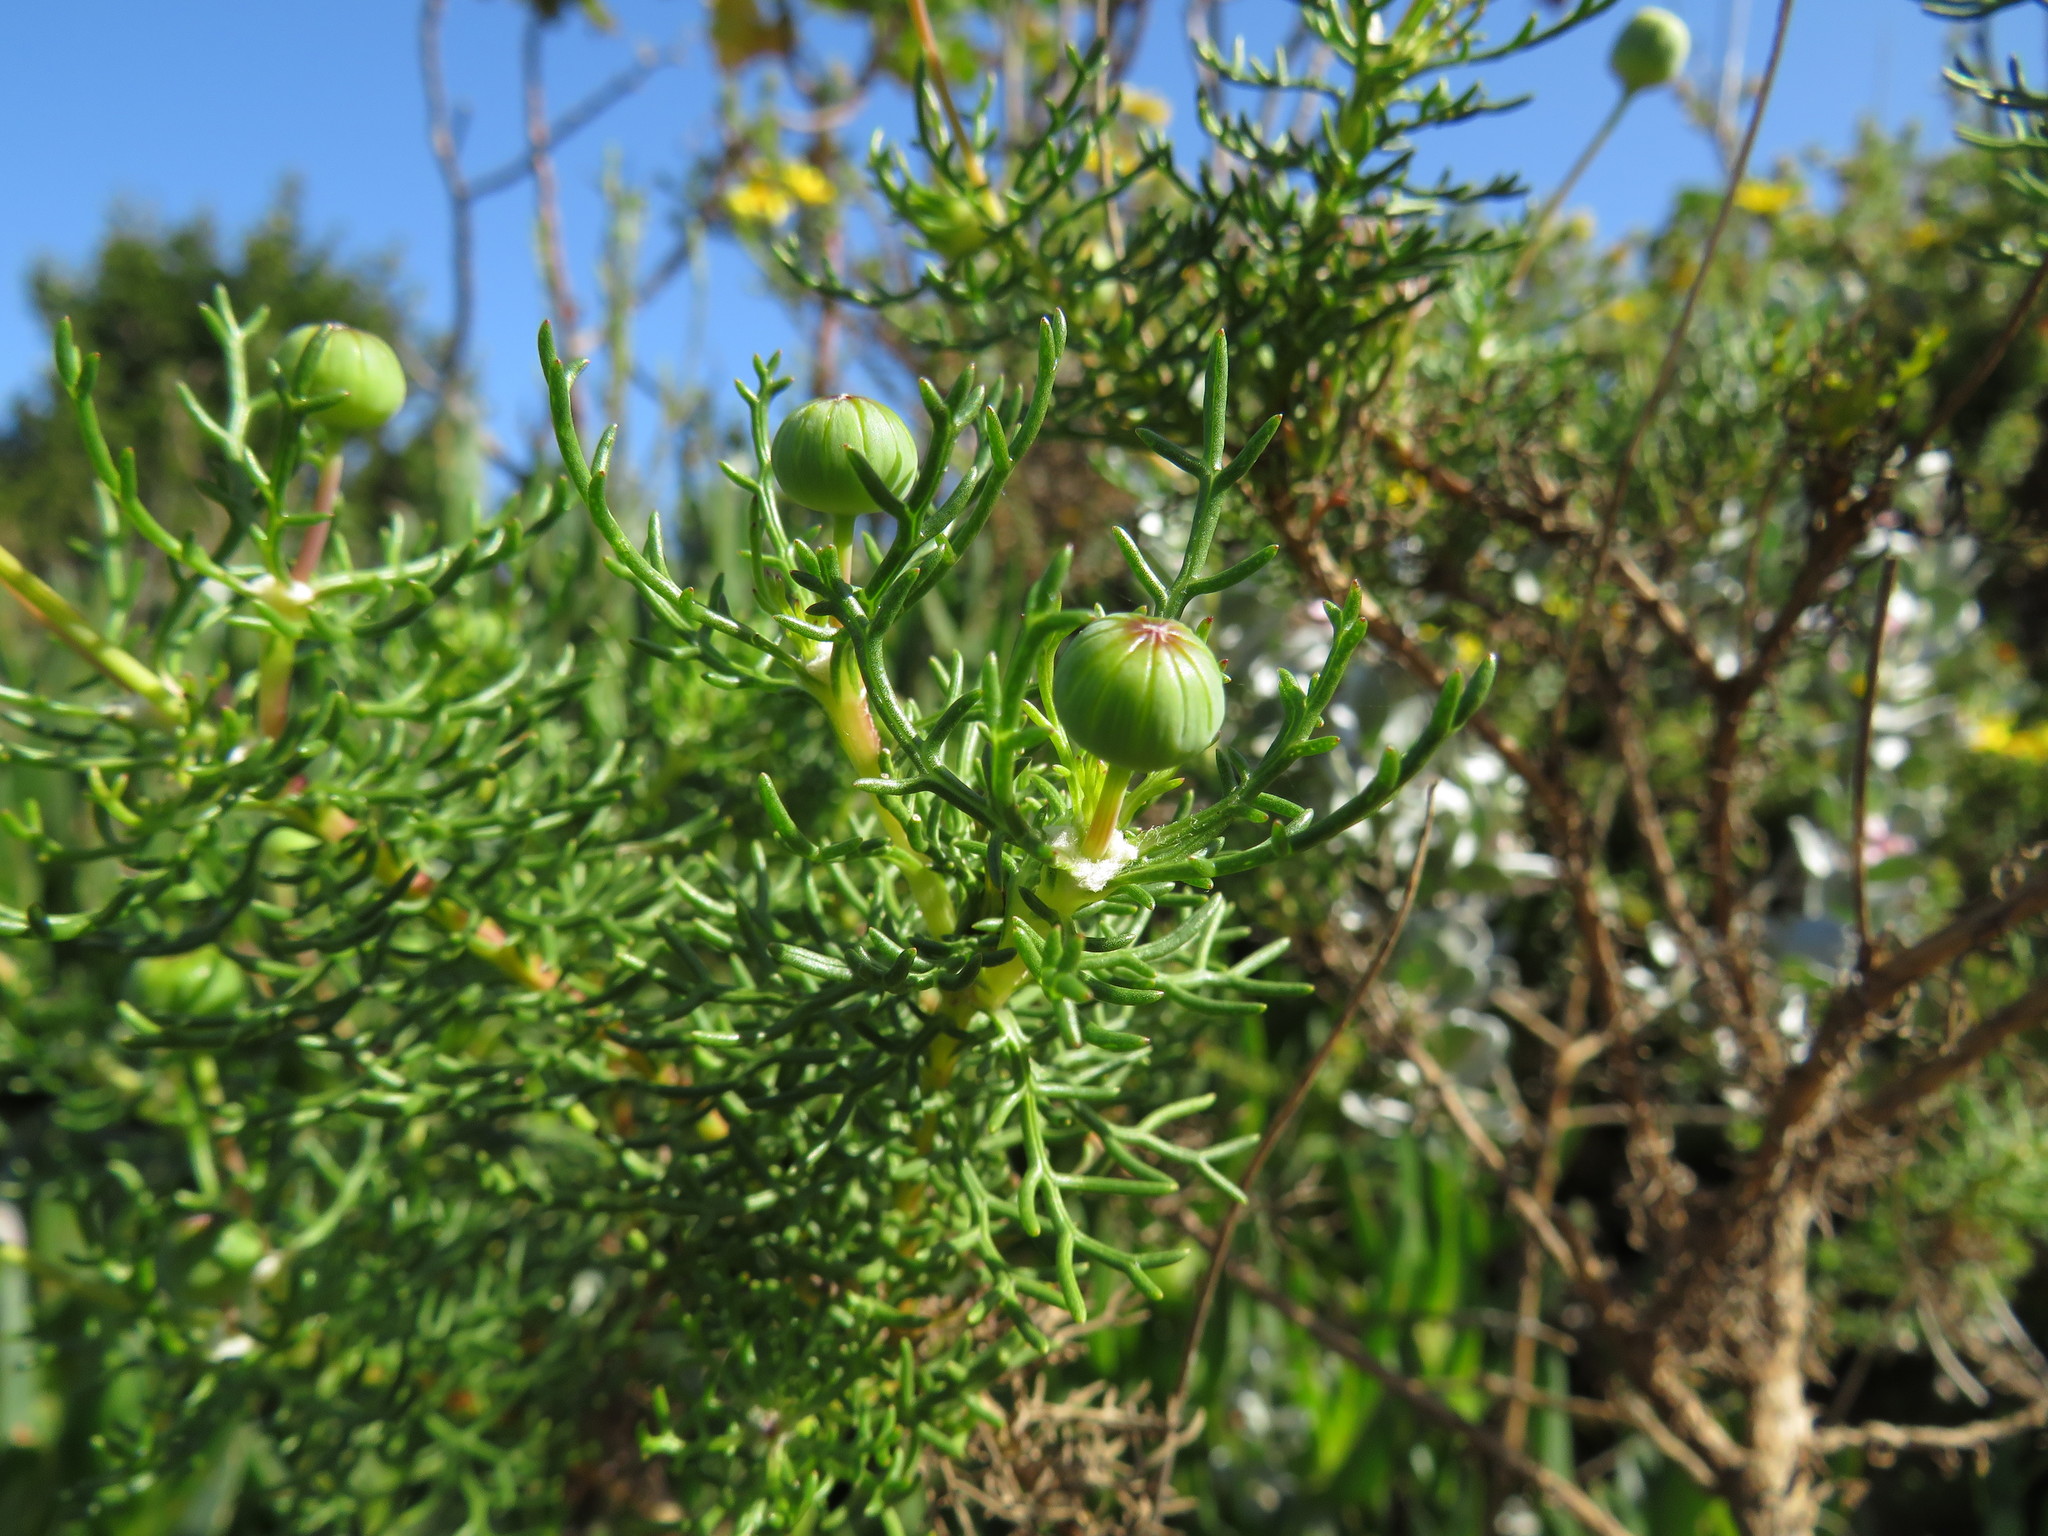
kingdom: Plantae
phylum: Tracheophyta
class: Magnoliopsida
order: Asterales
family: Asteraceae
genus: Euryops
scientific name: Euryops abrotanifolius
